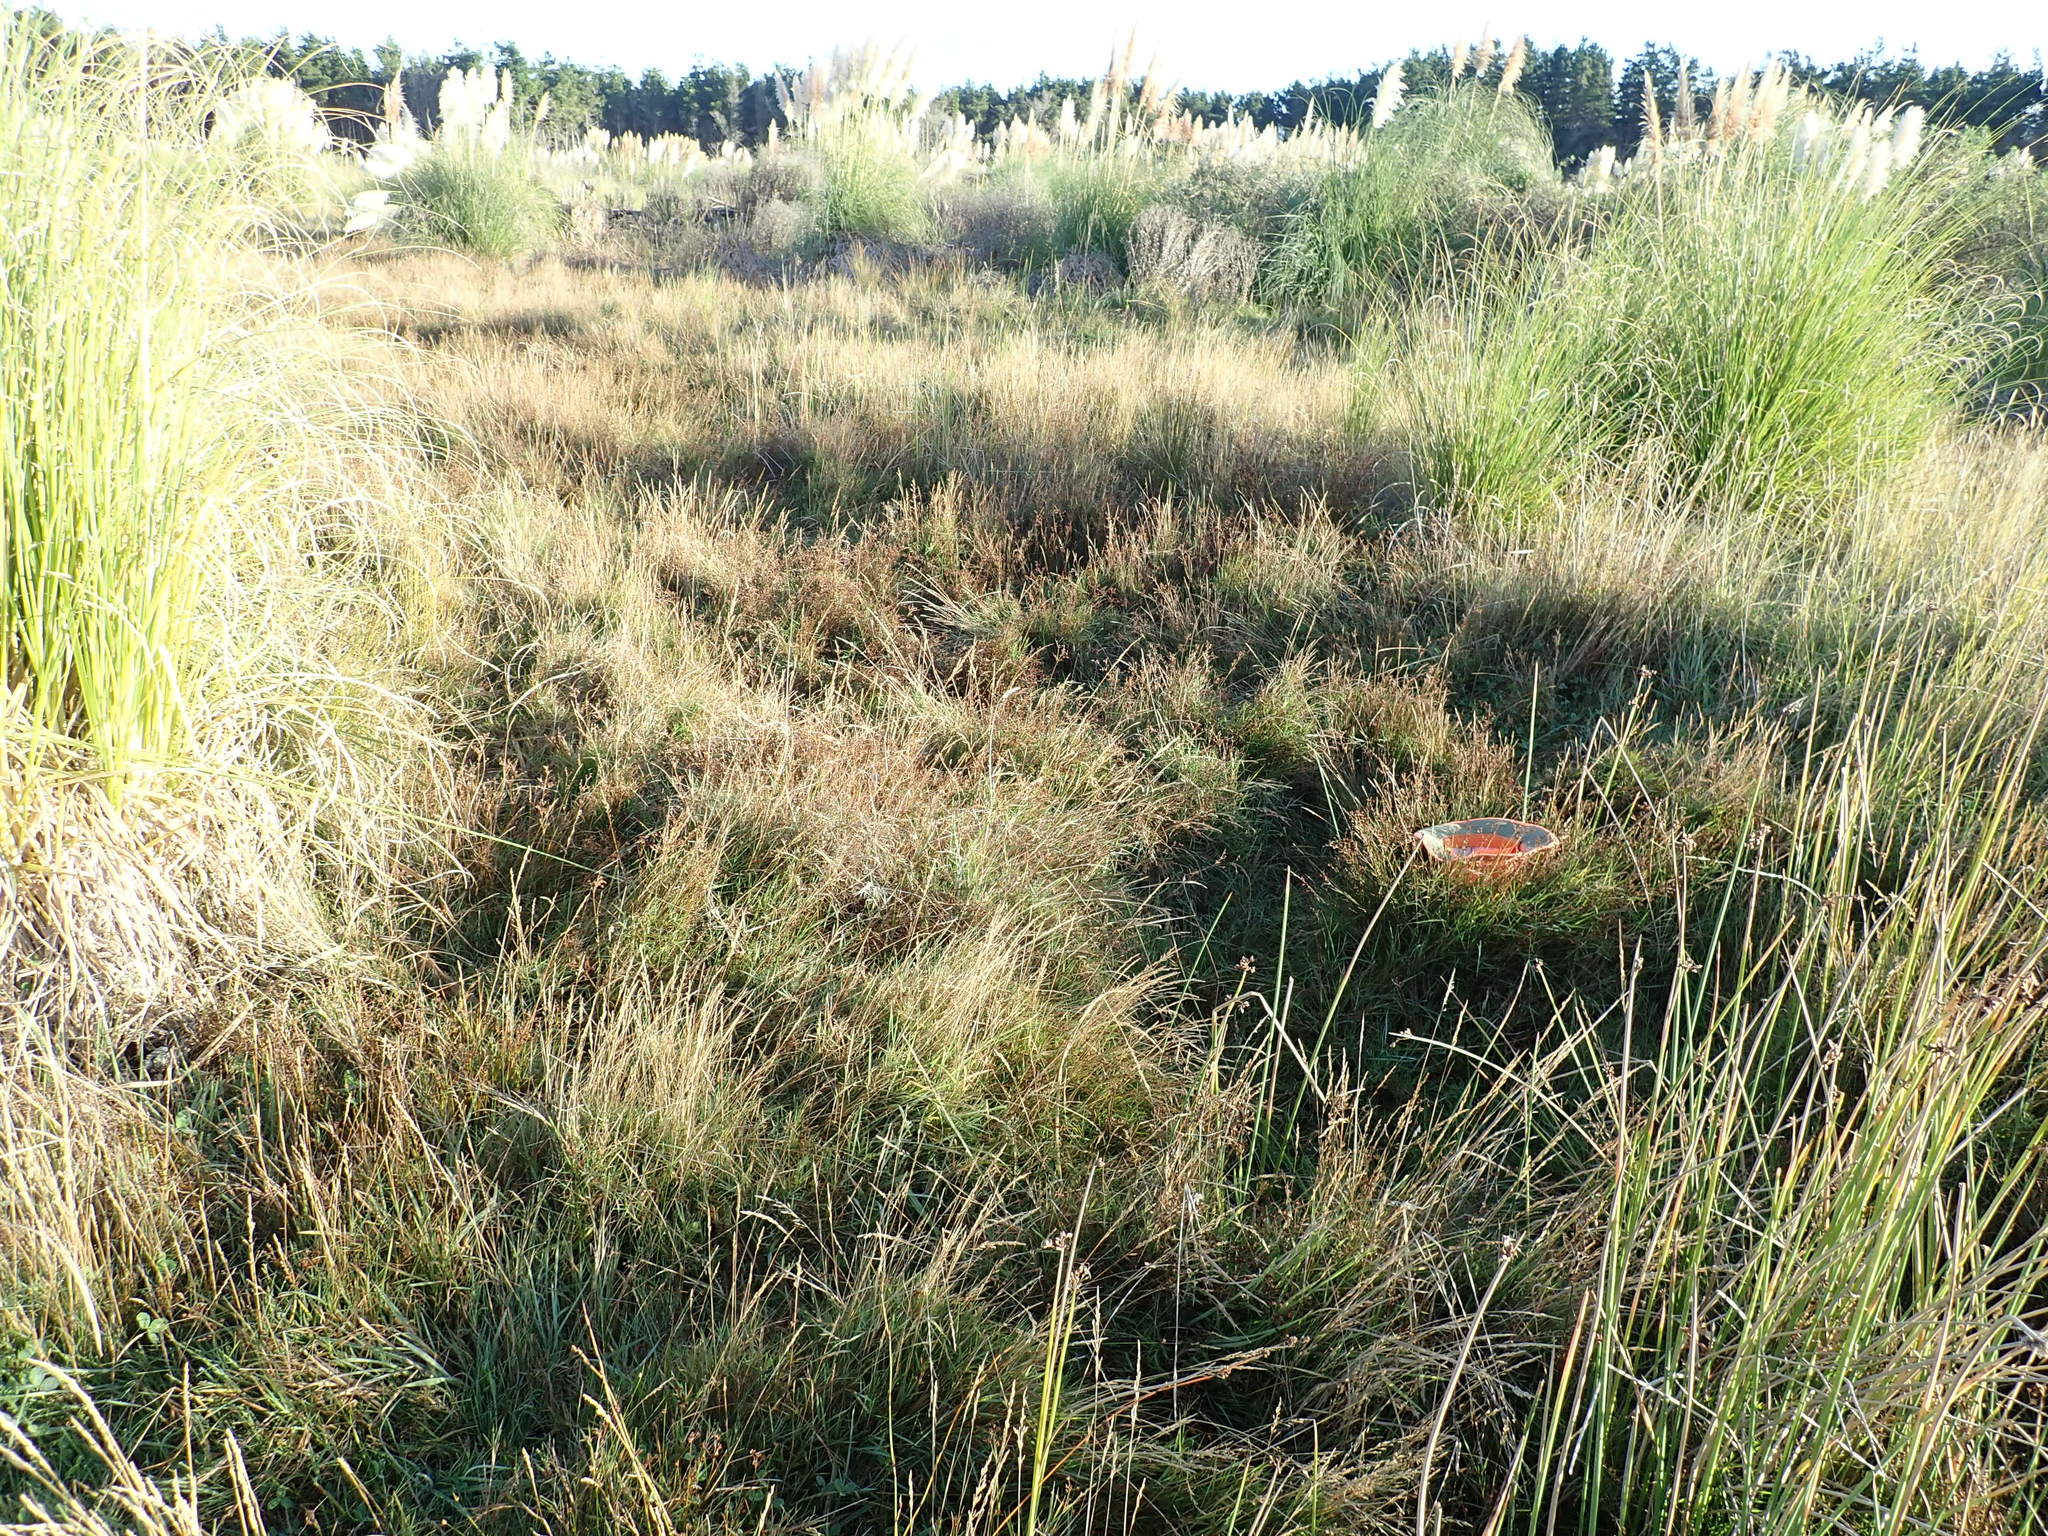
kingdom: Plantae
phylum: Tracheophyta
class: Liliopsida
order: Poales
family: Juncaceae
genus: Juncus
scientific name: Juncus articulatus
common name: Jointed rush
